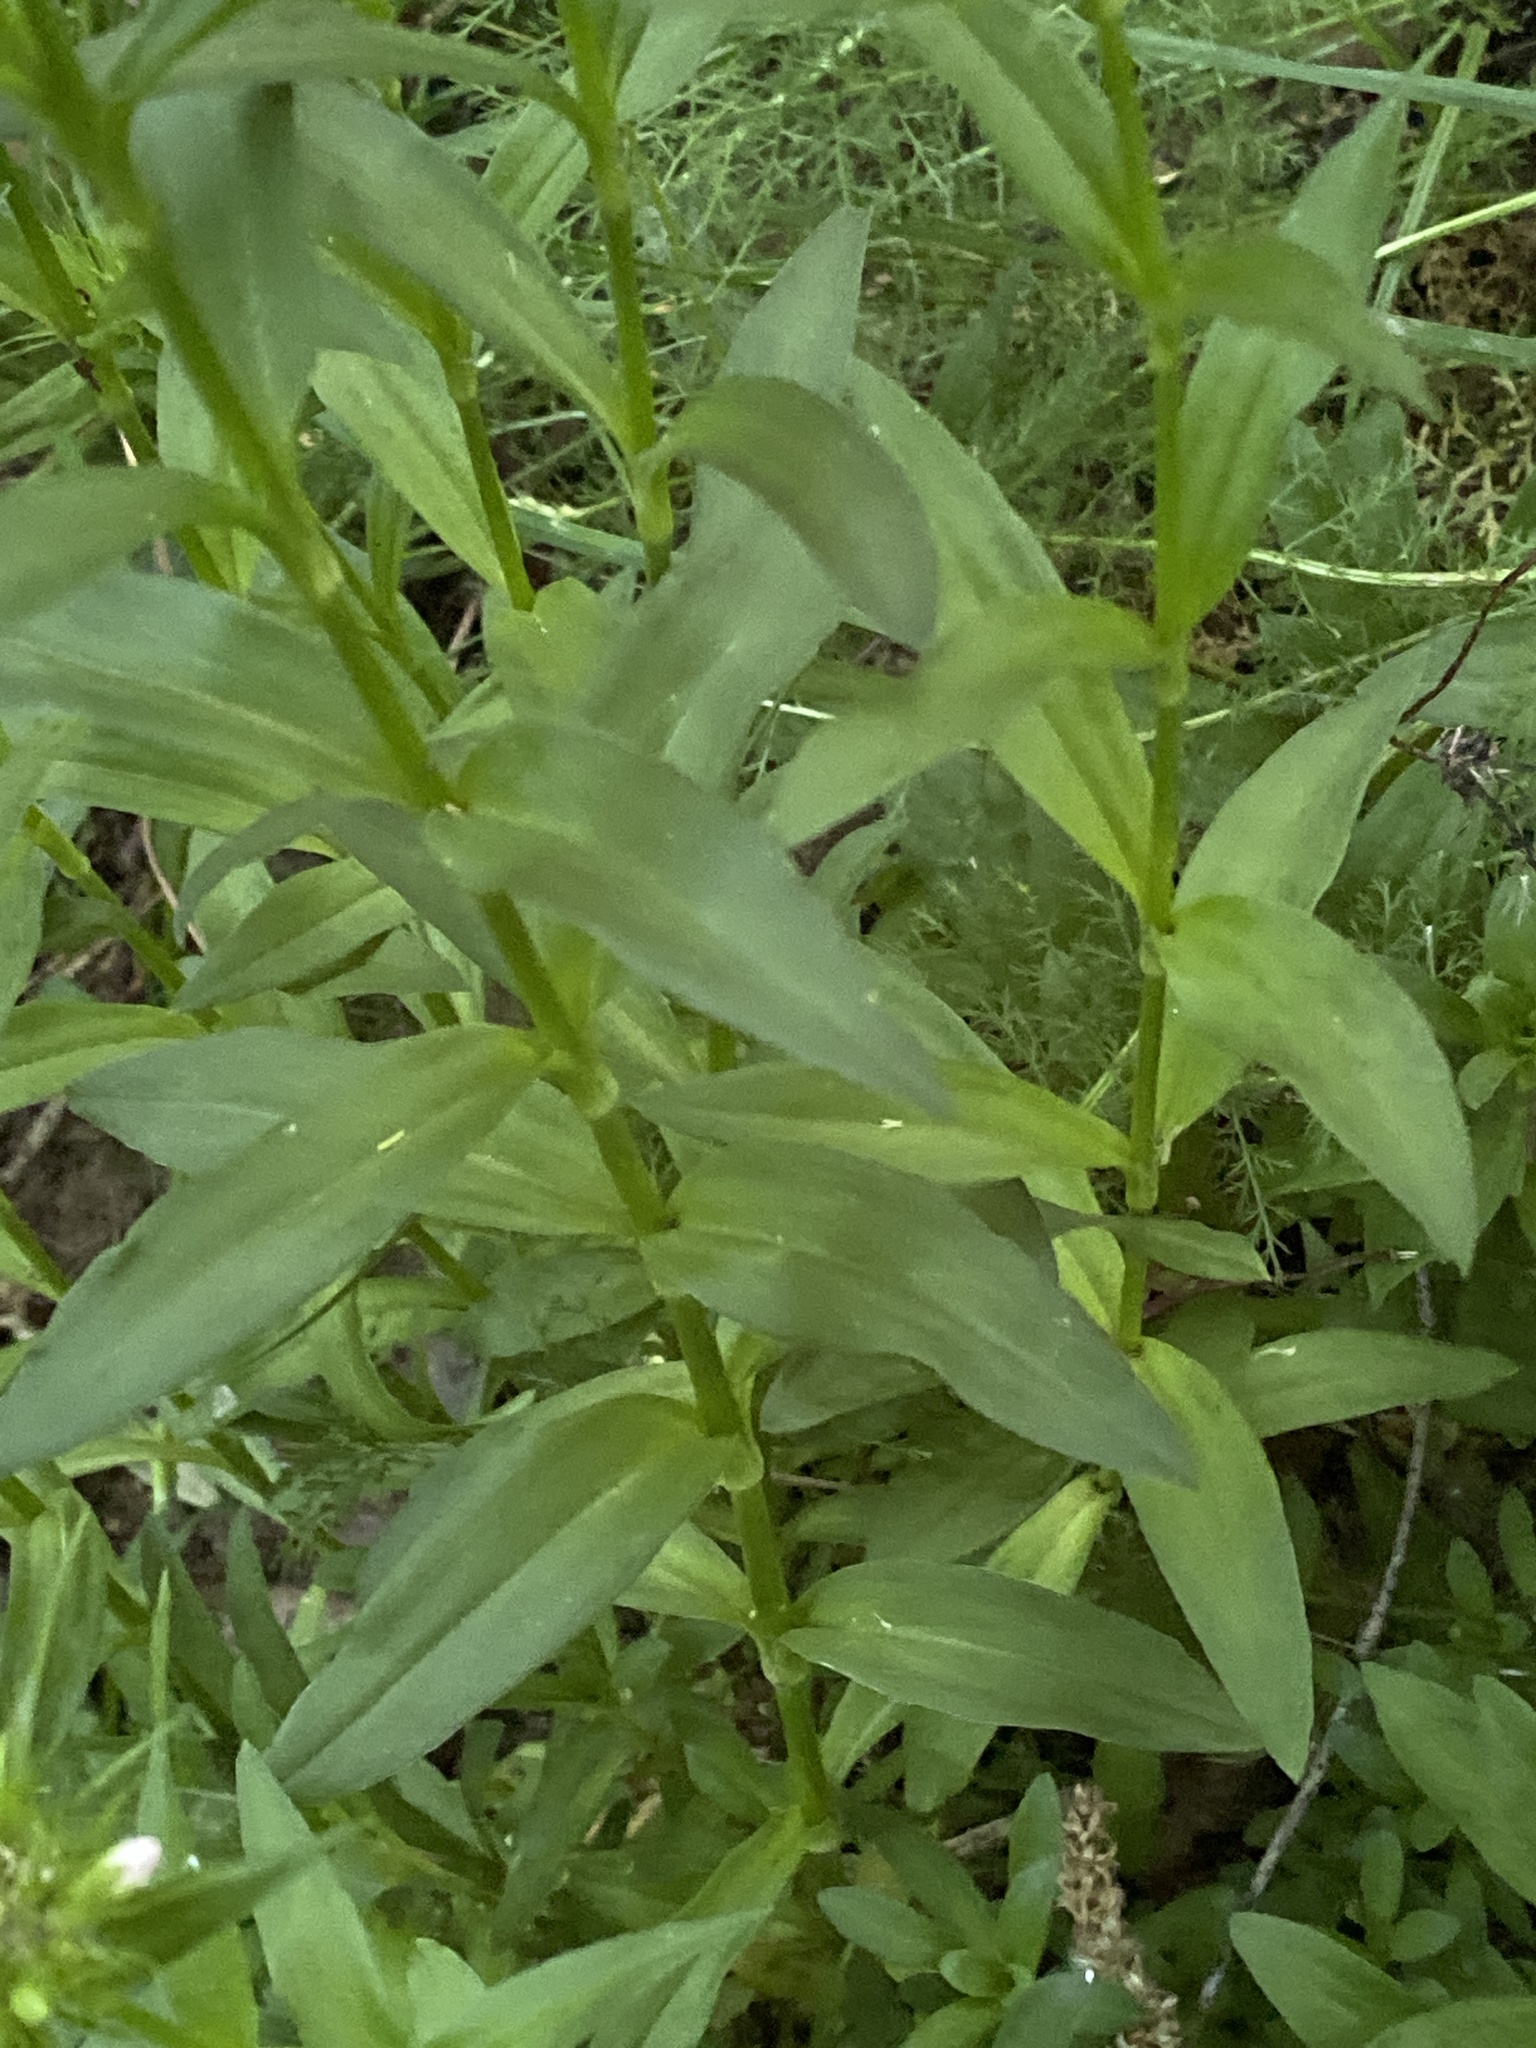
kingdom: Plantae
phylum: Tracheophyta
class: Magnoliopsida
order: Caryophyllales
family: Caryophyllaceae
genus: Dianthus
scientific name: Dianthus barbatus
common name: Sweet-william
